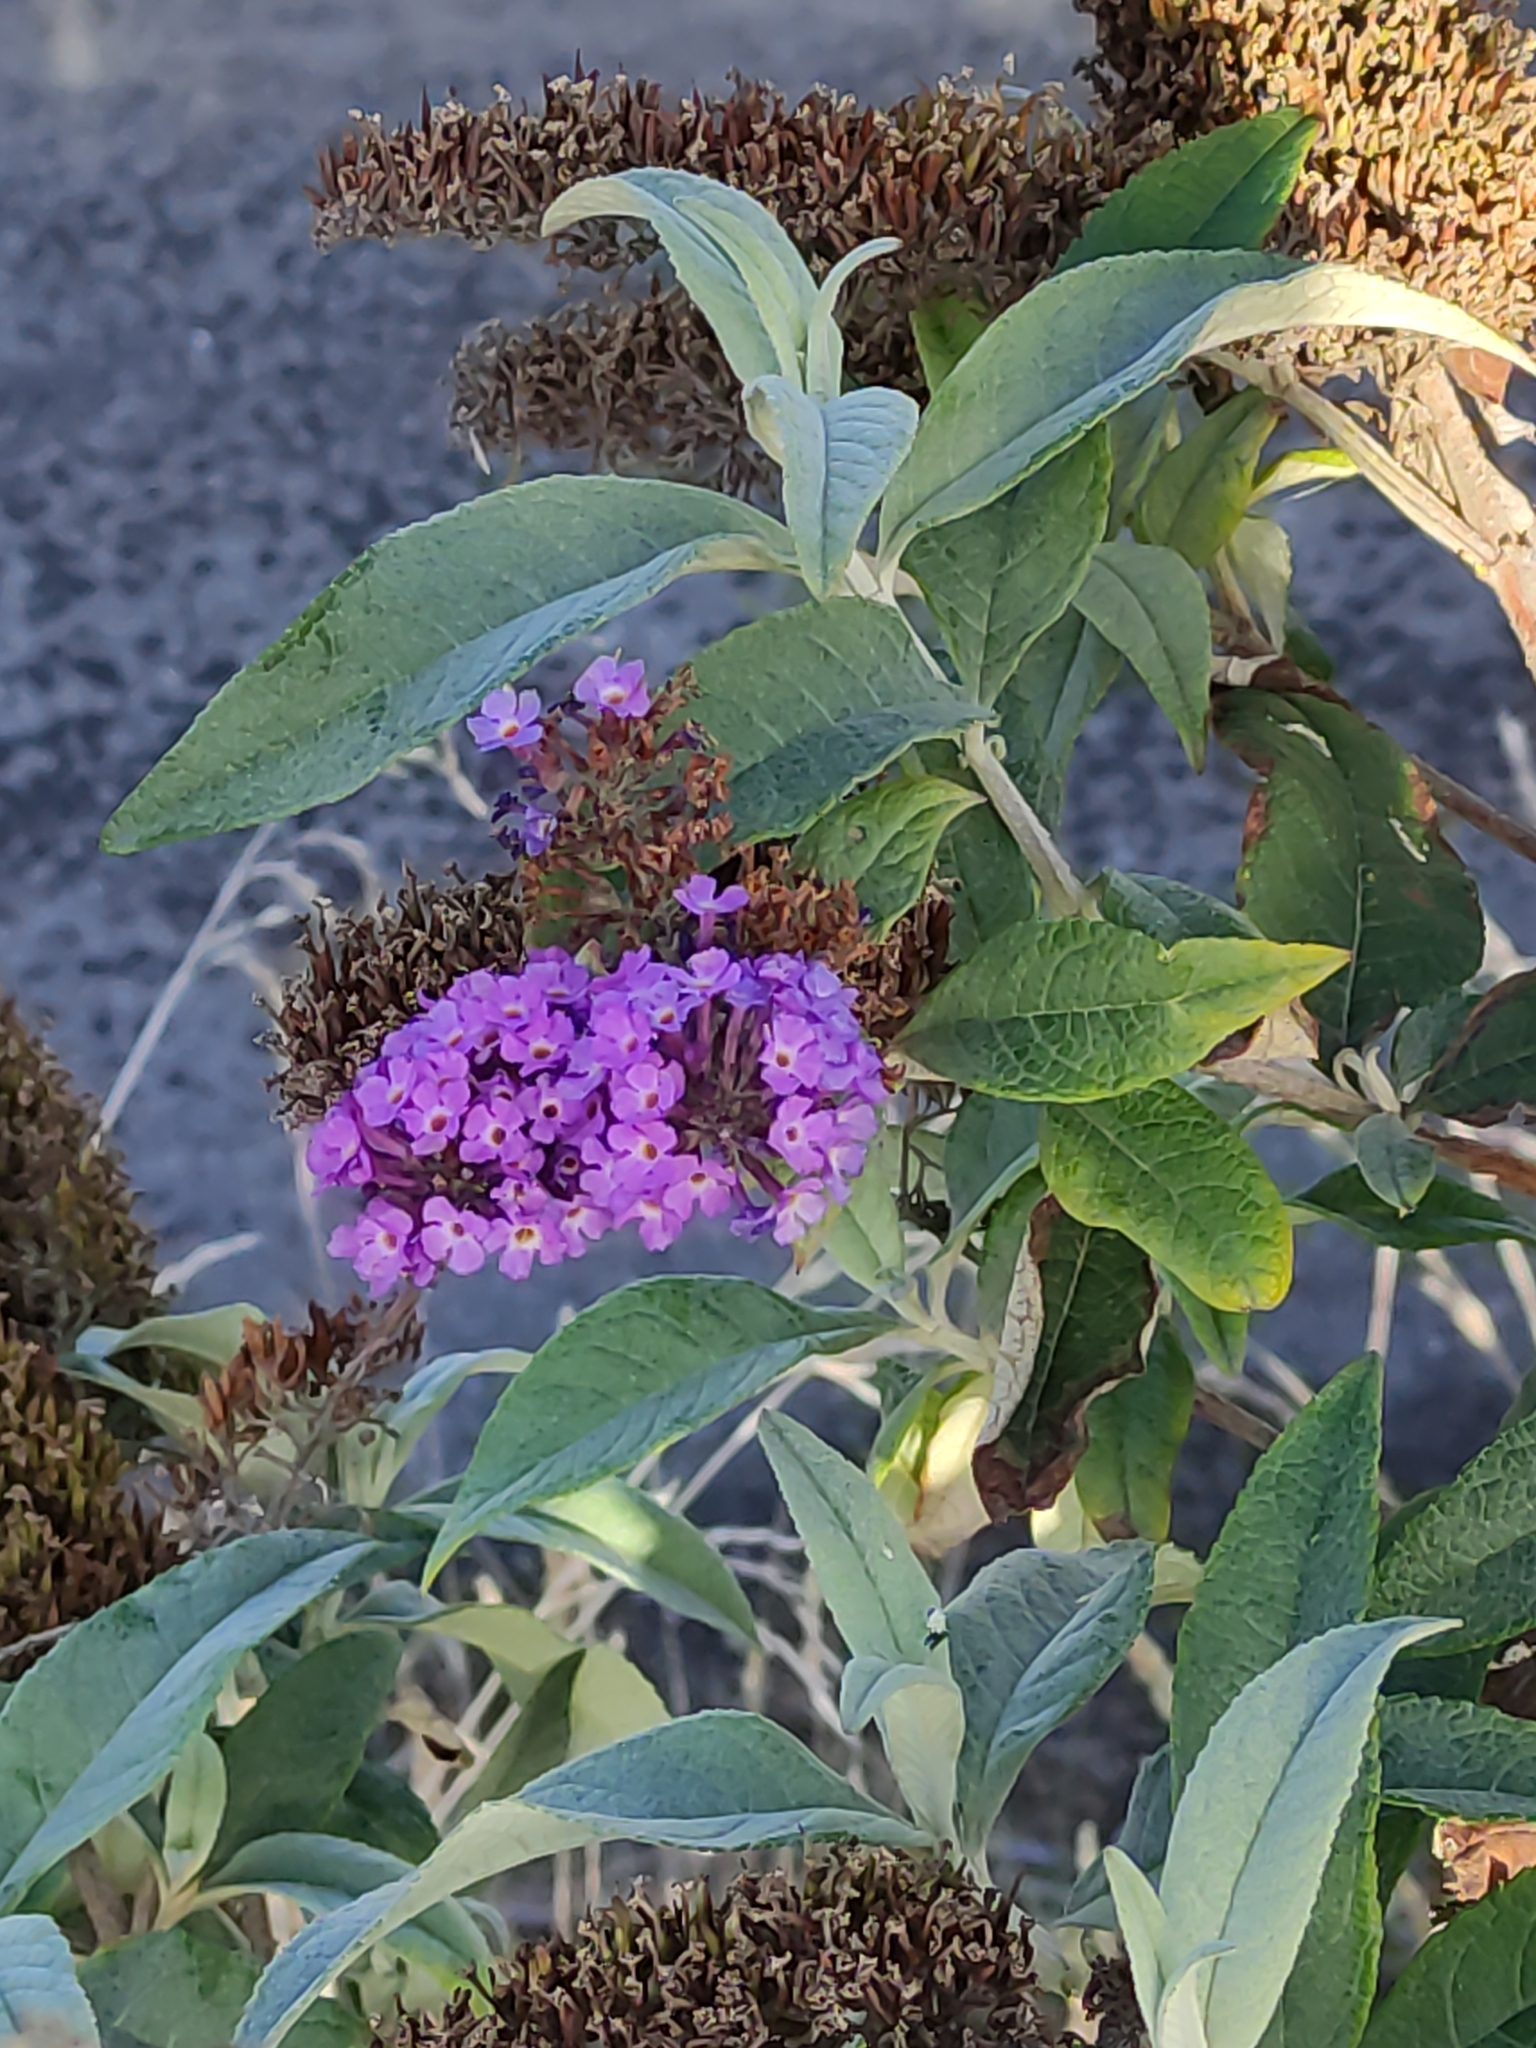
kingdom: Plantae
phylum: Tracheophyta
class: Magnoliopsida
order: Lamiales
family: Scrophulariaceae
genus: Buddleja
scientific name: Buddleja davidii
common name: Butterfly-bush
